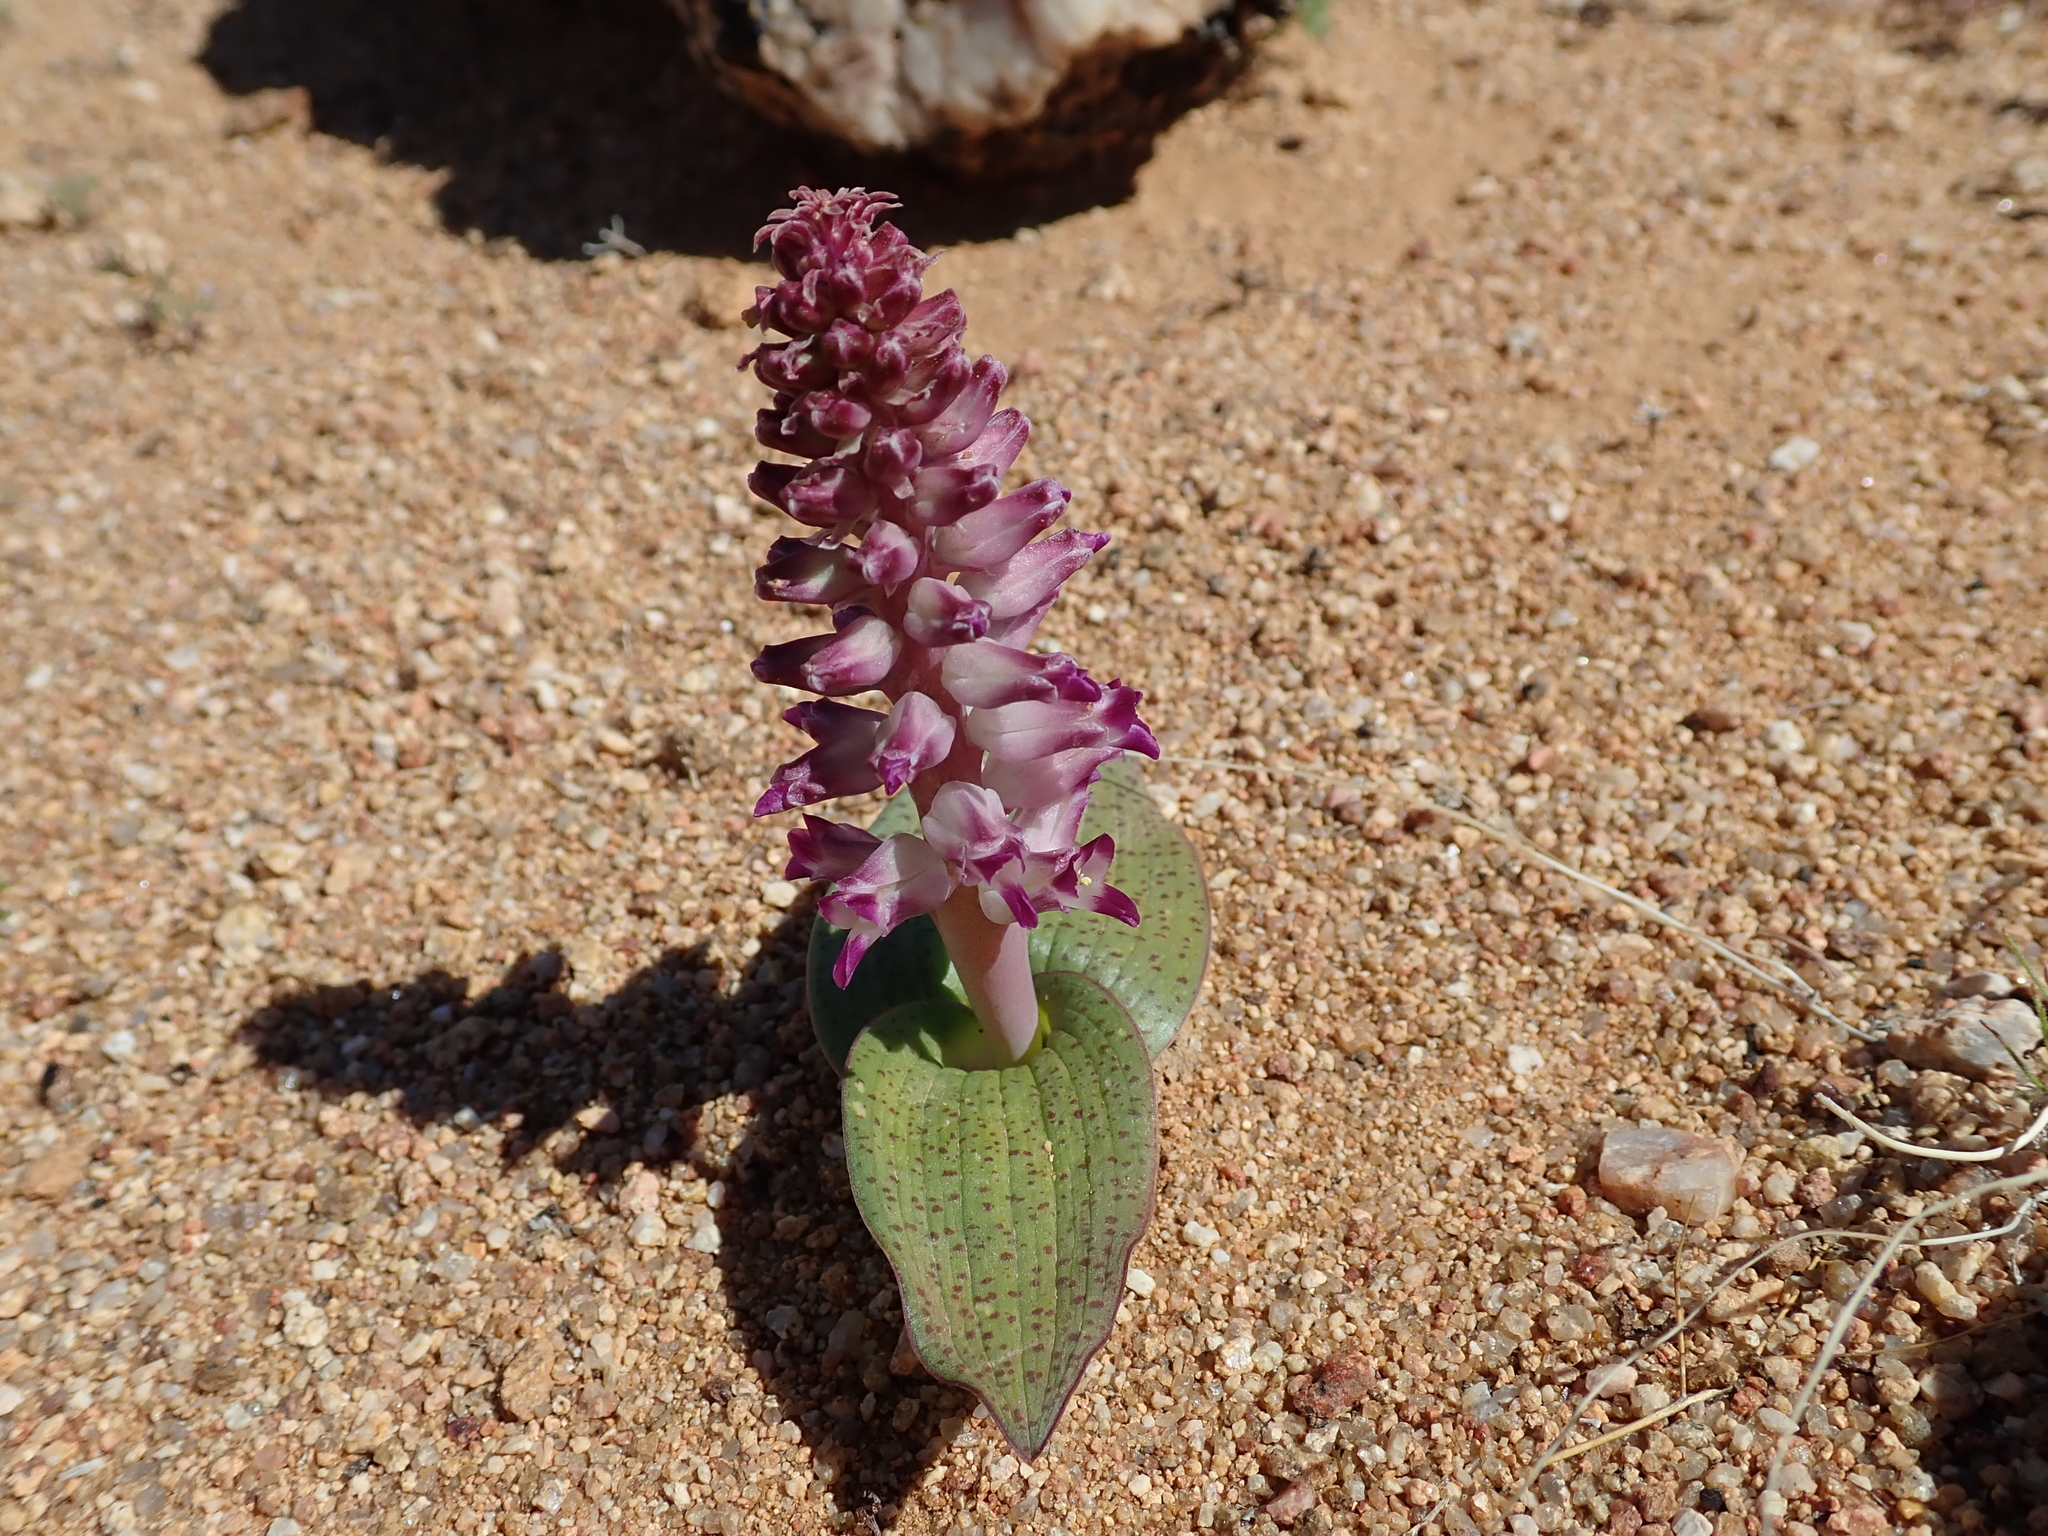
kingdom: Plantae
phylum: Tracheophyta
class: Liliopsida
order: Asparagales
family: Asparagaceae
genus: Lachenalia
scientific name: Lachenalia carnosa
